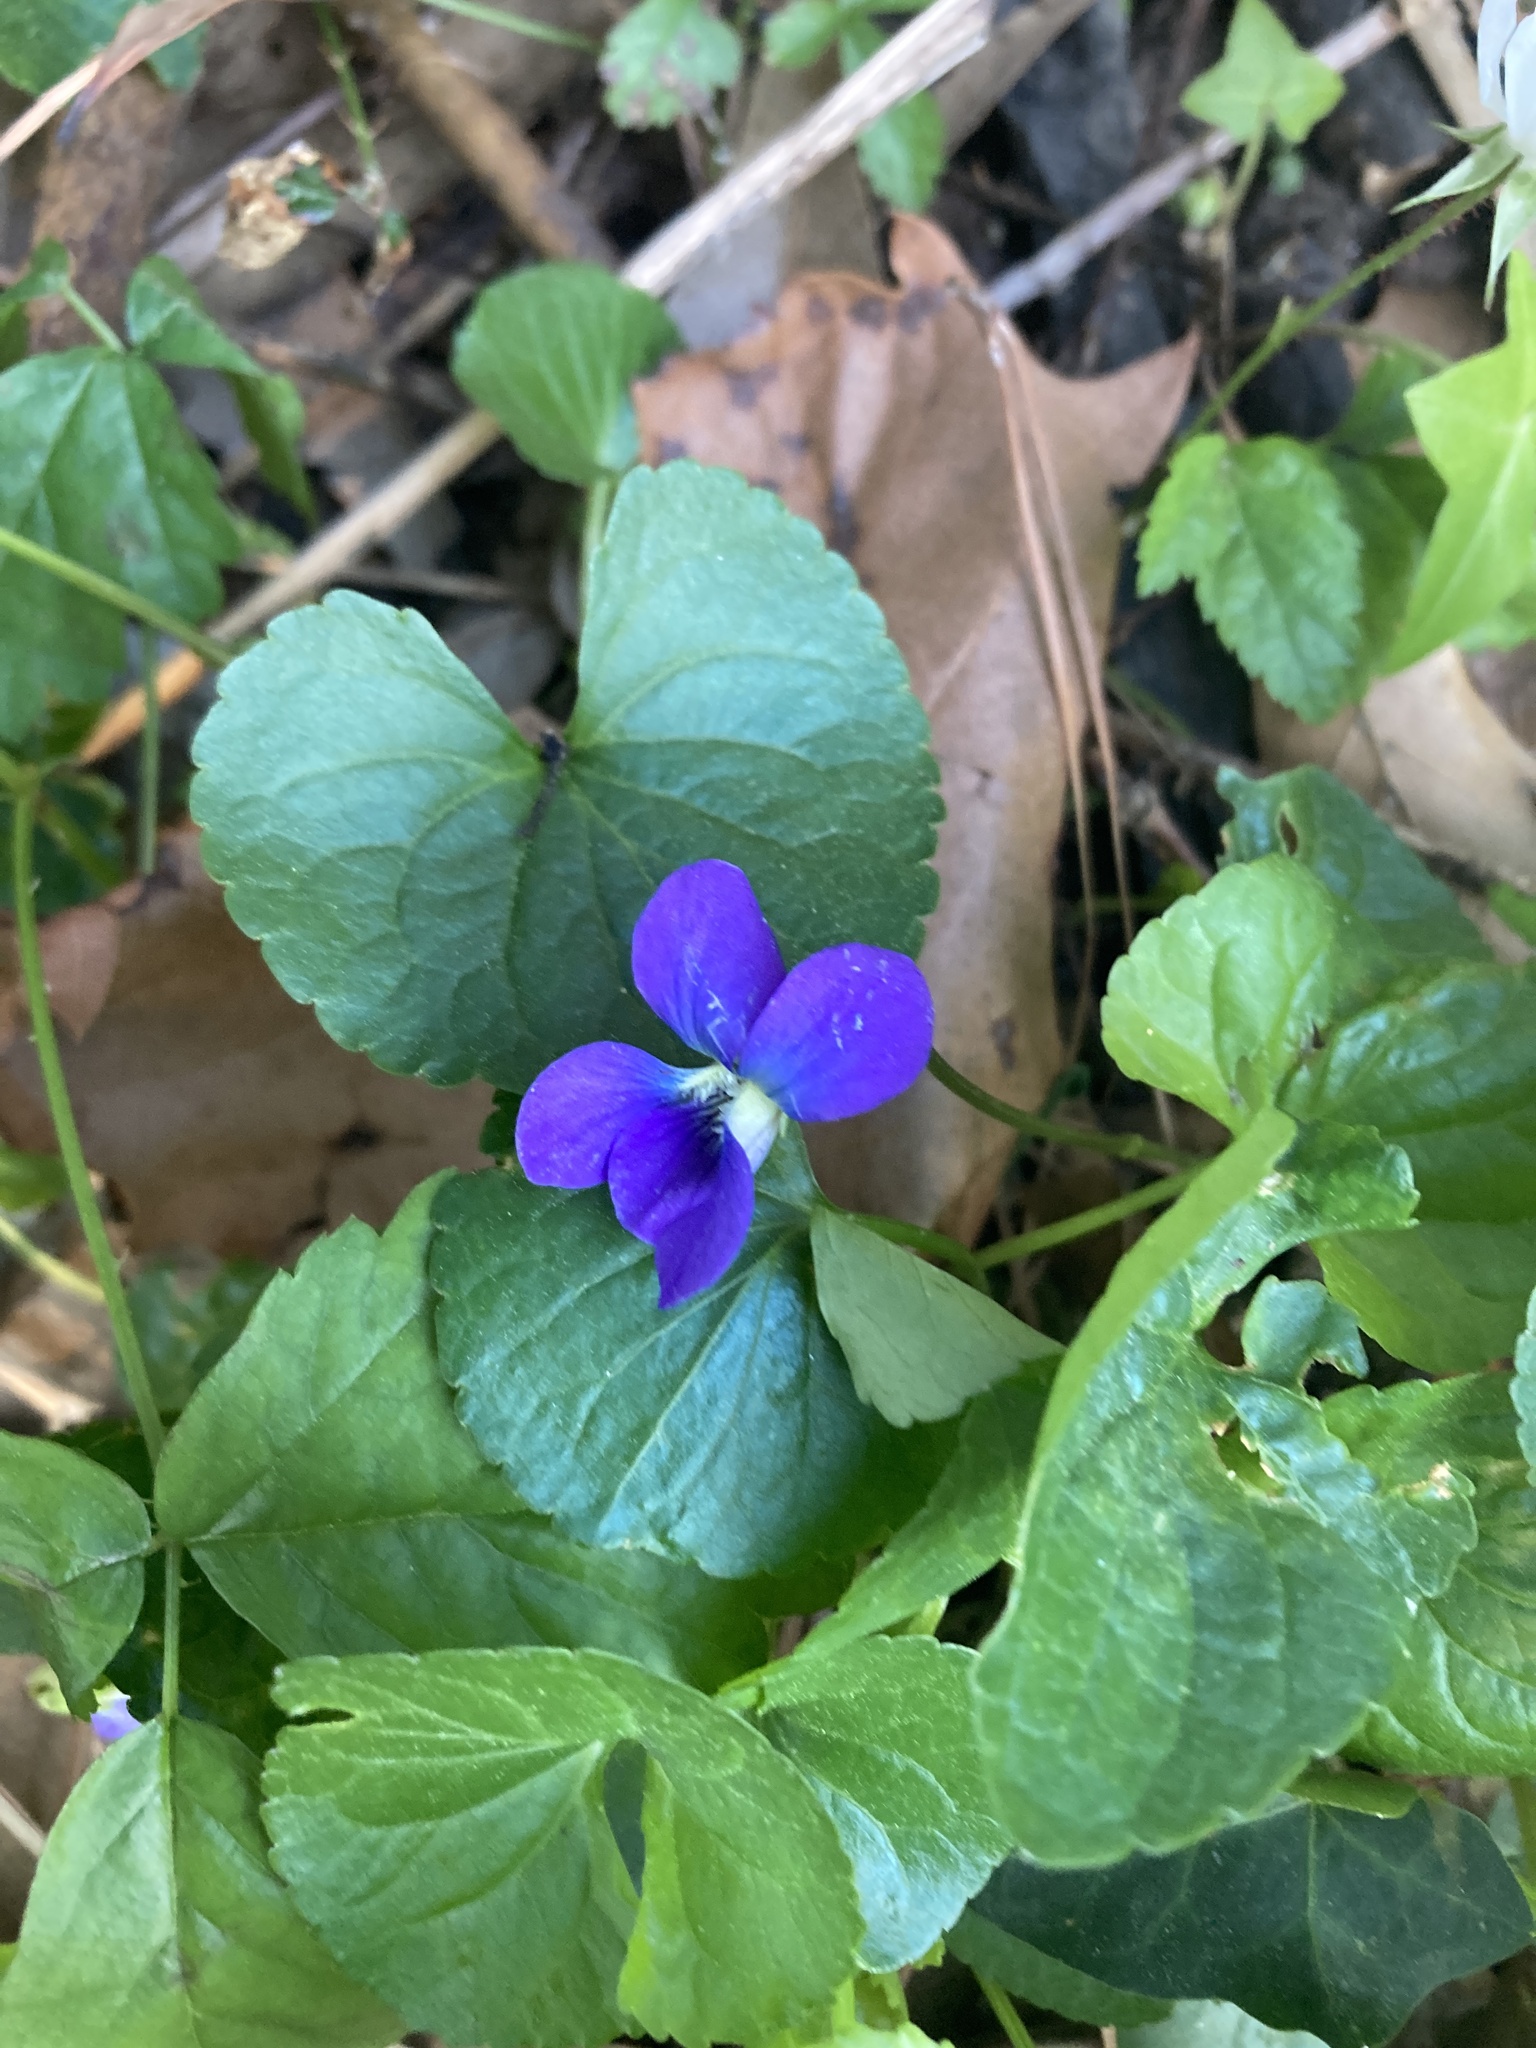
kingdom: Plantae
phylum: Tracheophyta
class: Magnoliopsida
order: Malpighiales
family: Violaceae
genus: Viola
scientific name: Viola sororia
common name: Dooryard violet
